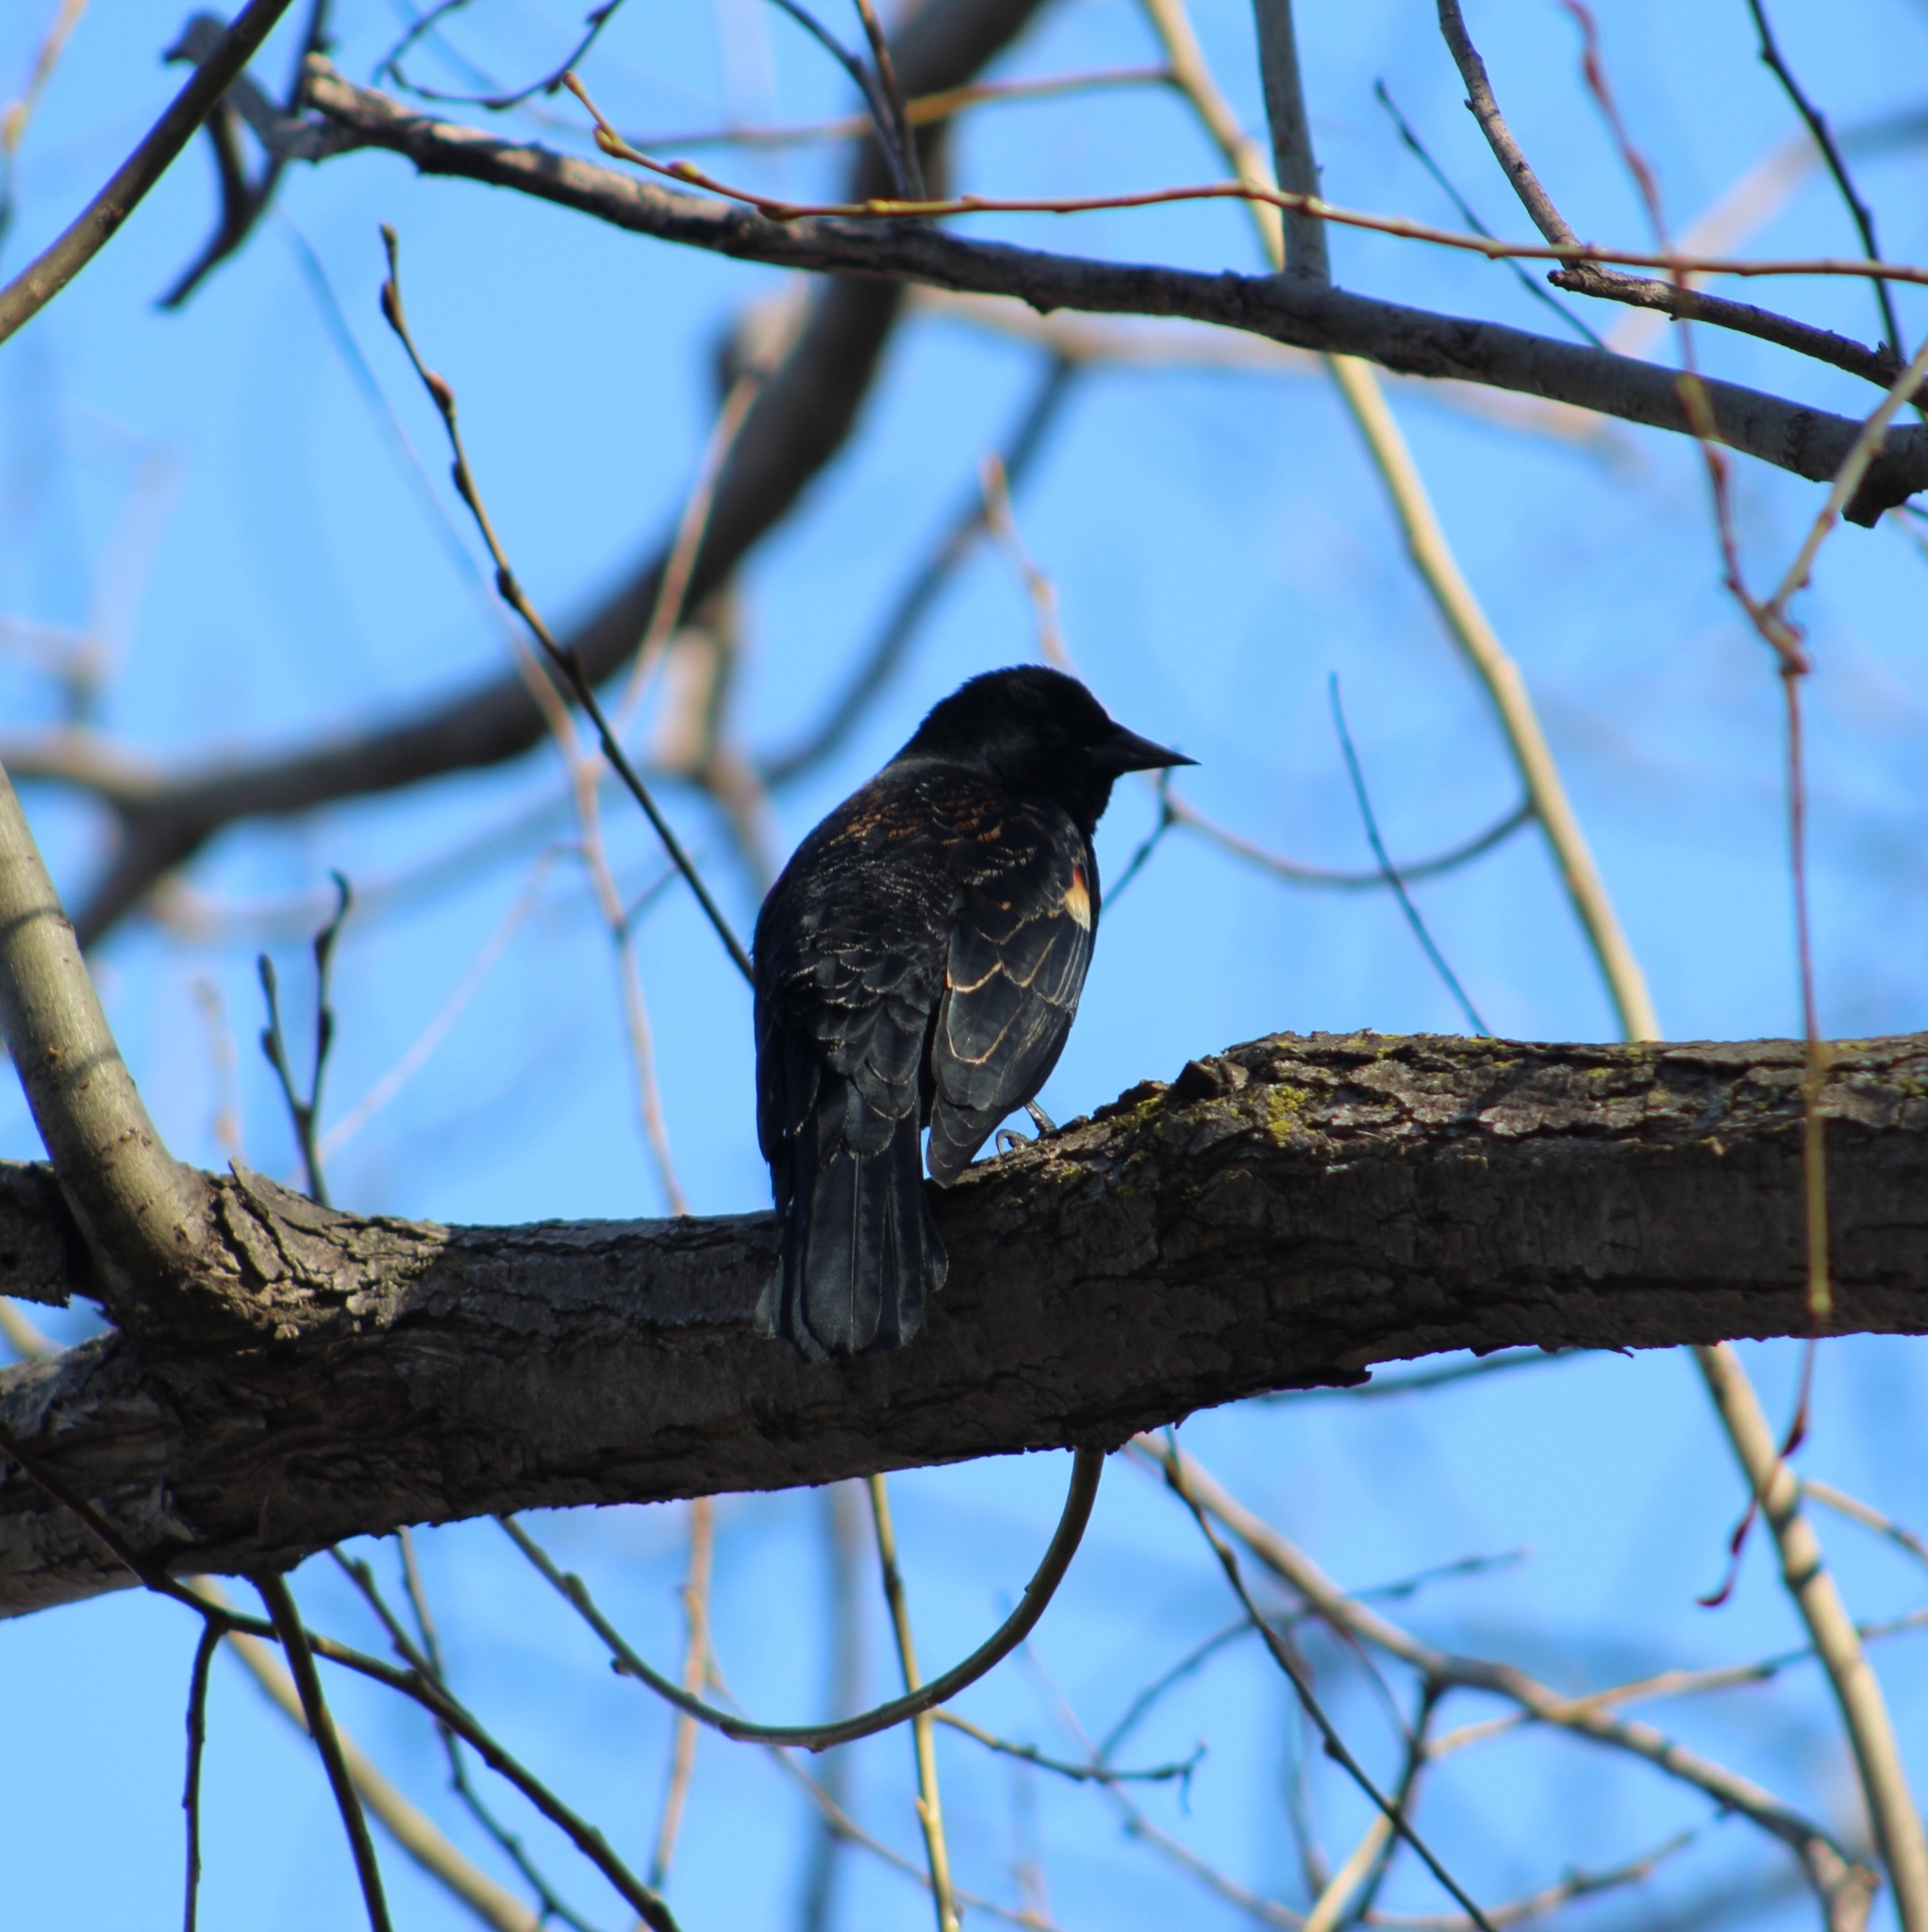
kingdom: Animalia
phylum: Chordata
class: Aves
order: Passeriformes
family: Icteridae
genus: Agelaius
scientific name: Agelaius phoeniceus
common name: Red-winged blackbird
